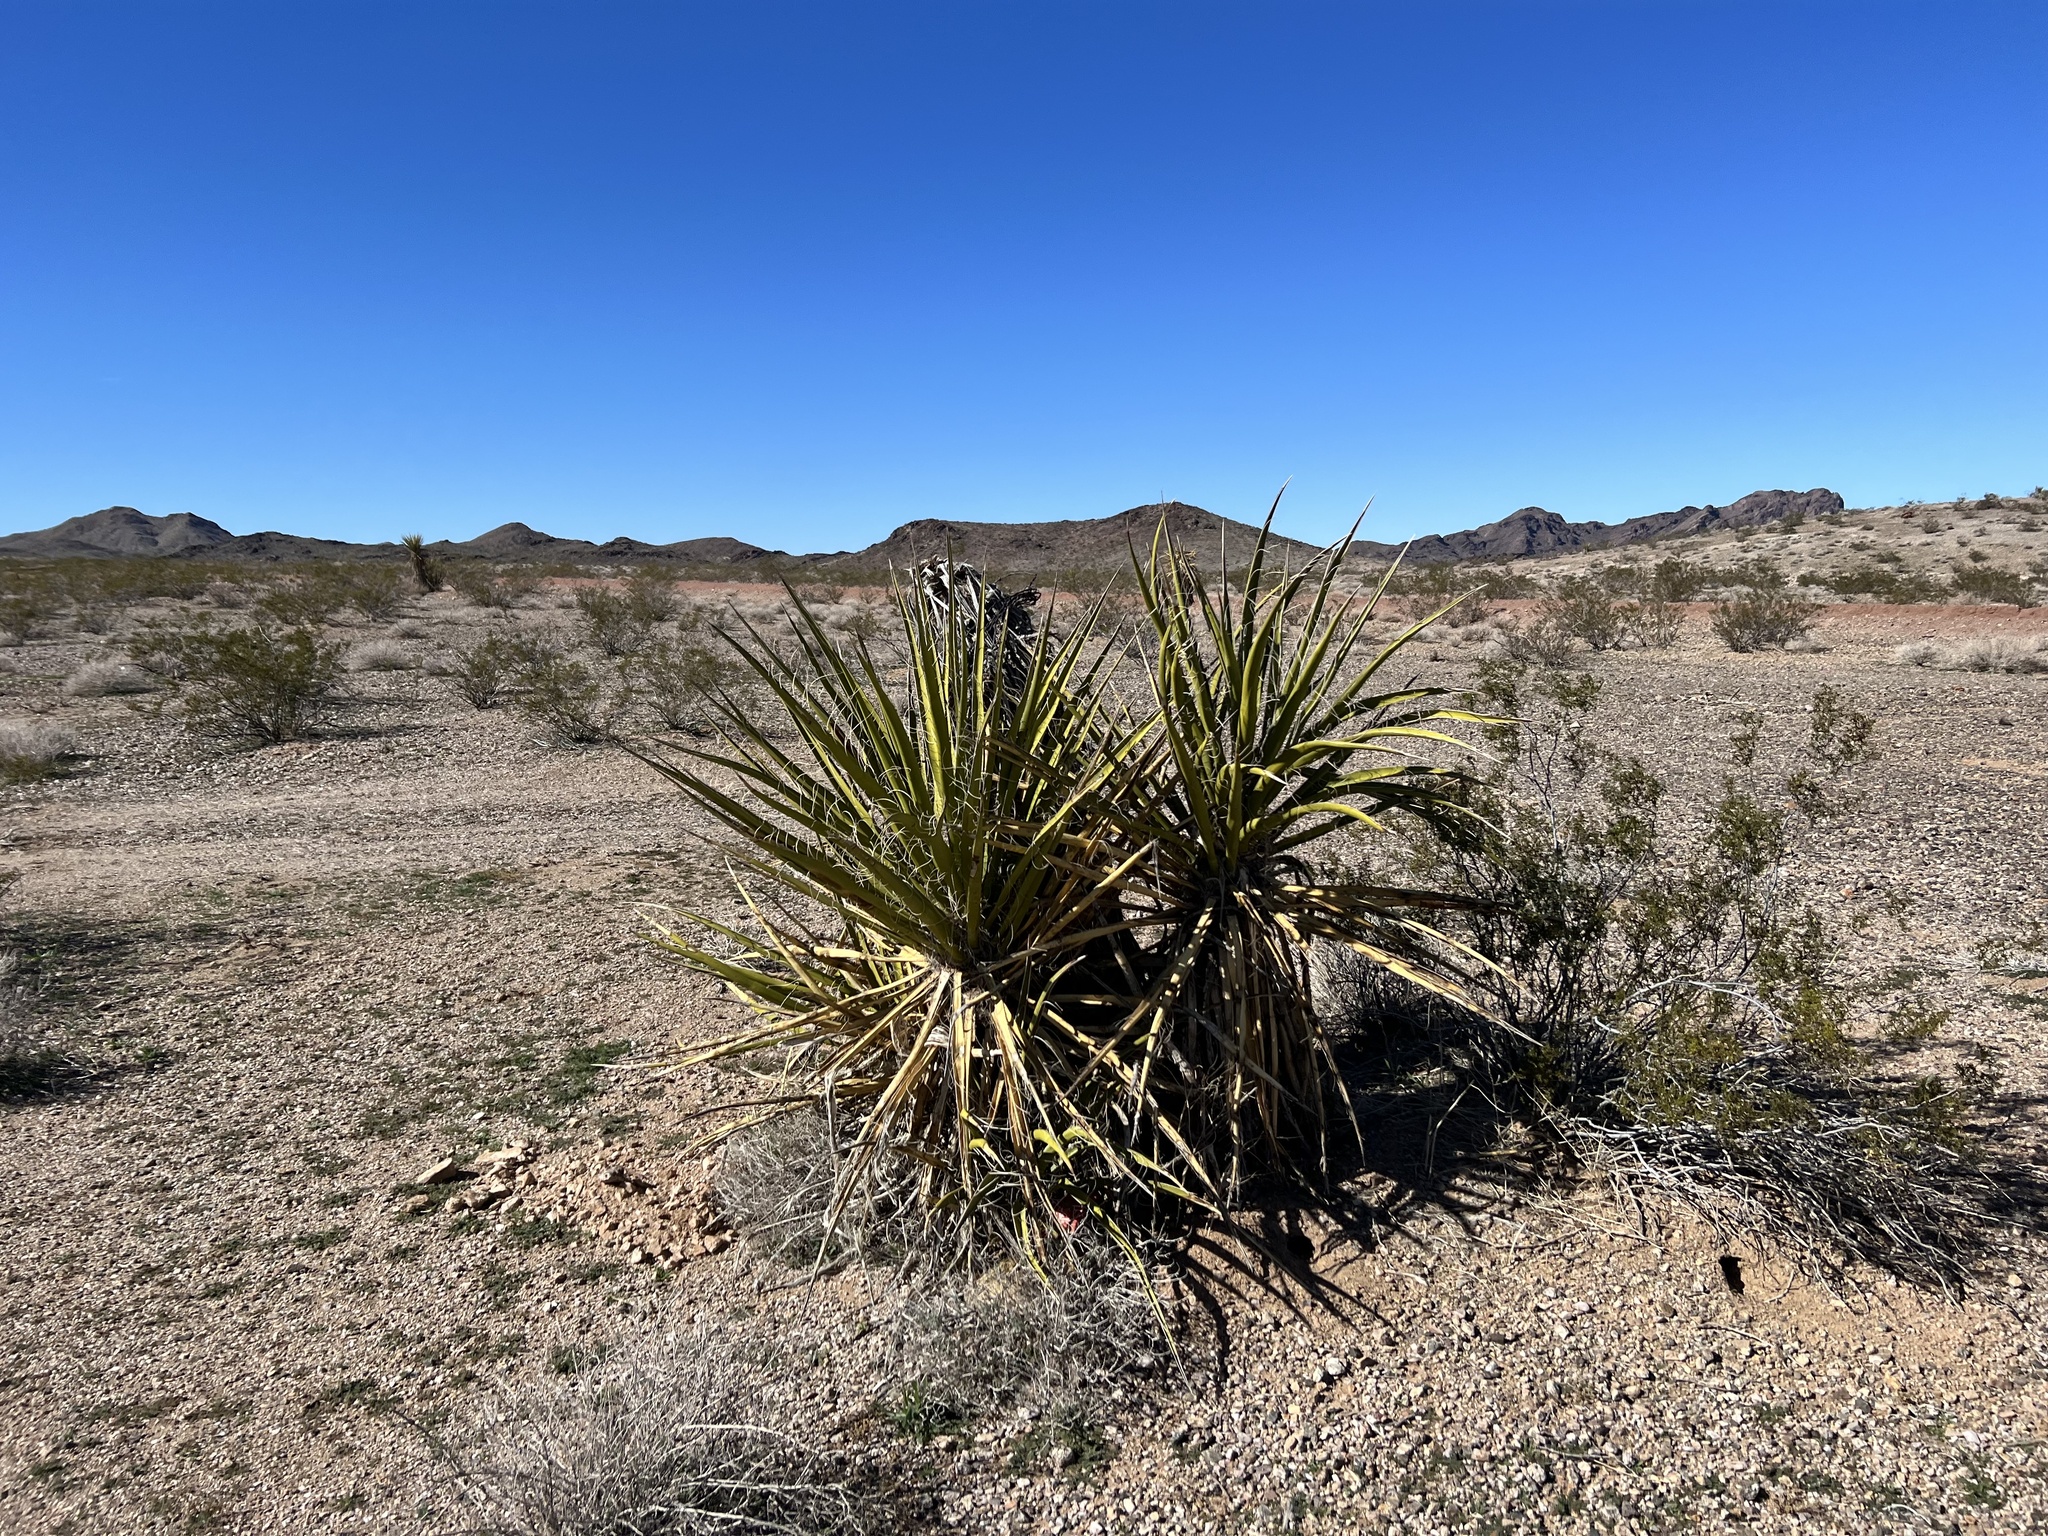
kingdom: Plantae
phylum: Tracheophyta
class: Liliopsida
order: Asparagales
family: Asparagaceae
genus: Yucca
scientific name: Yucca schidigera
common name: Mojave yucca
